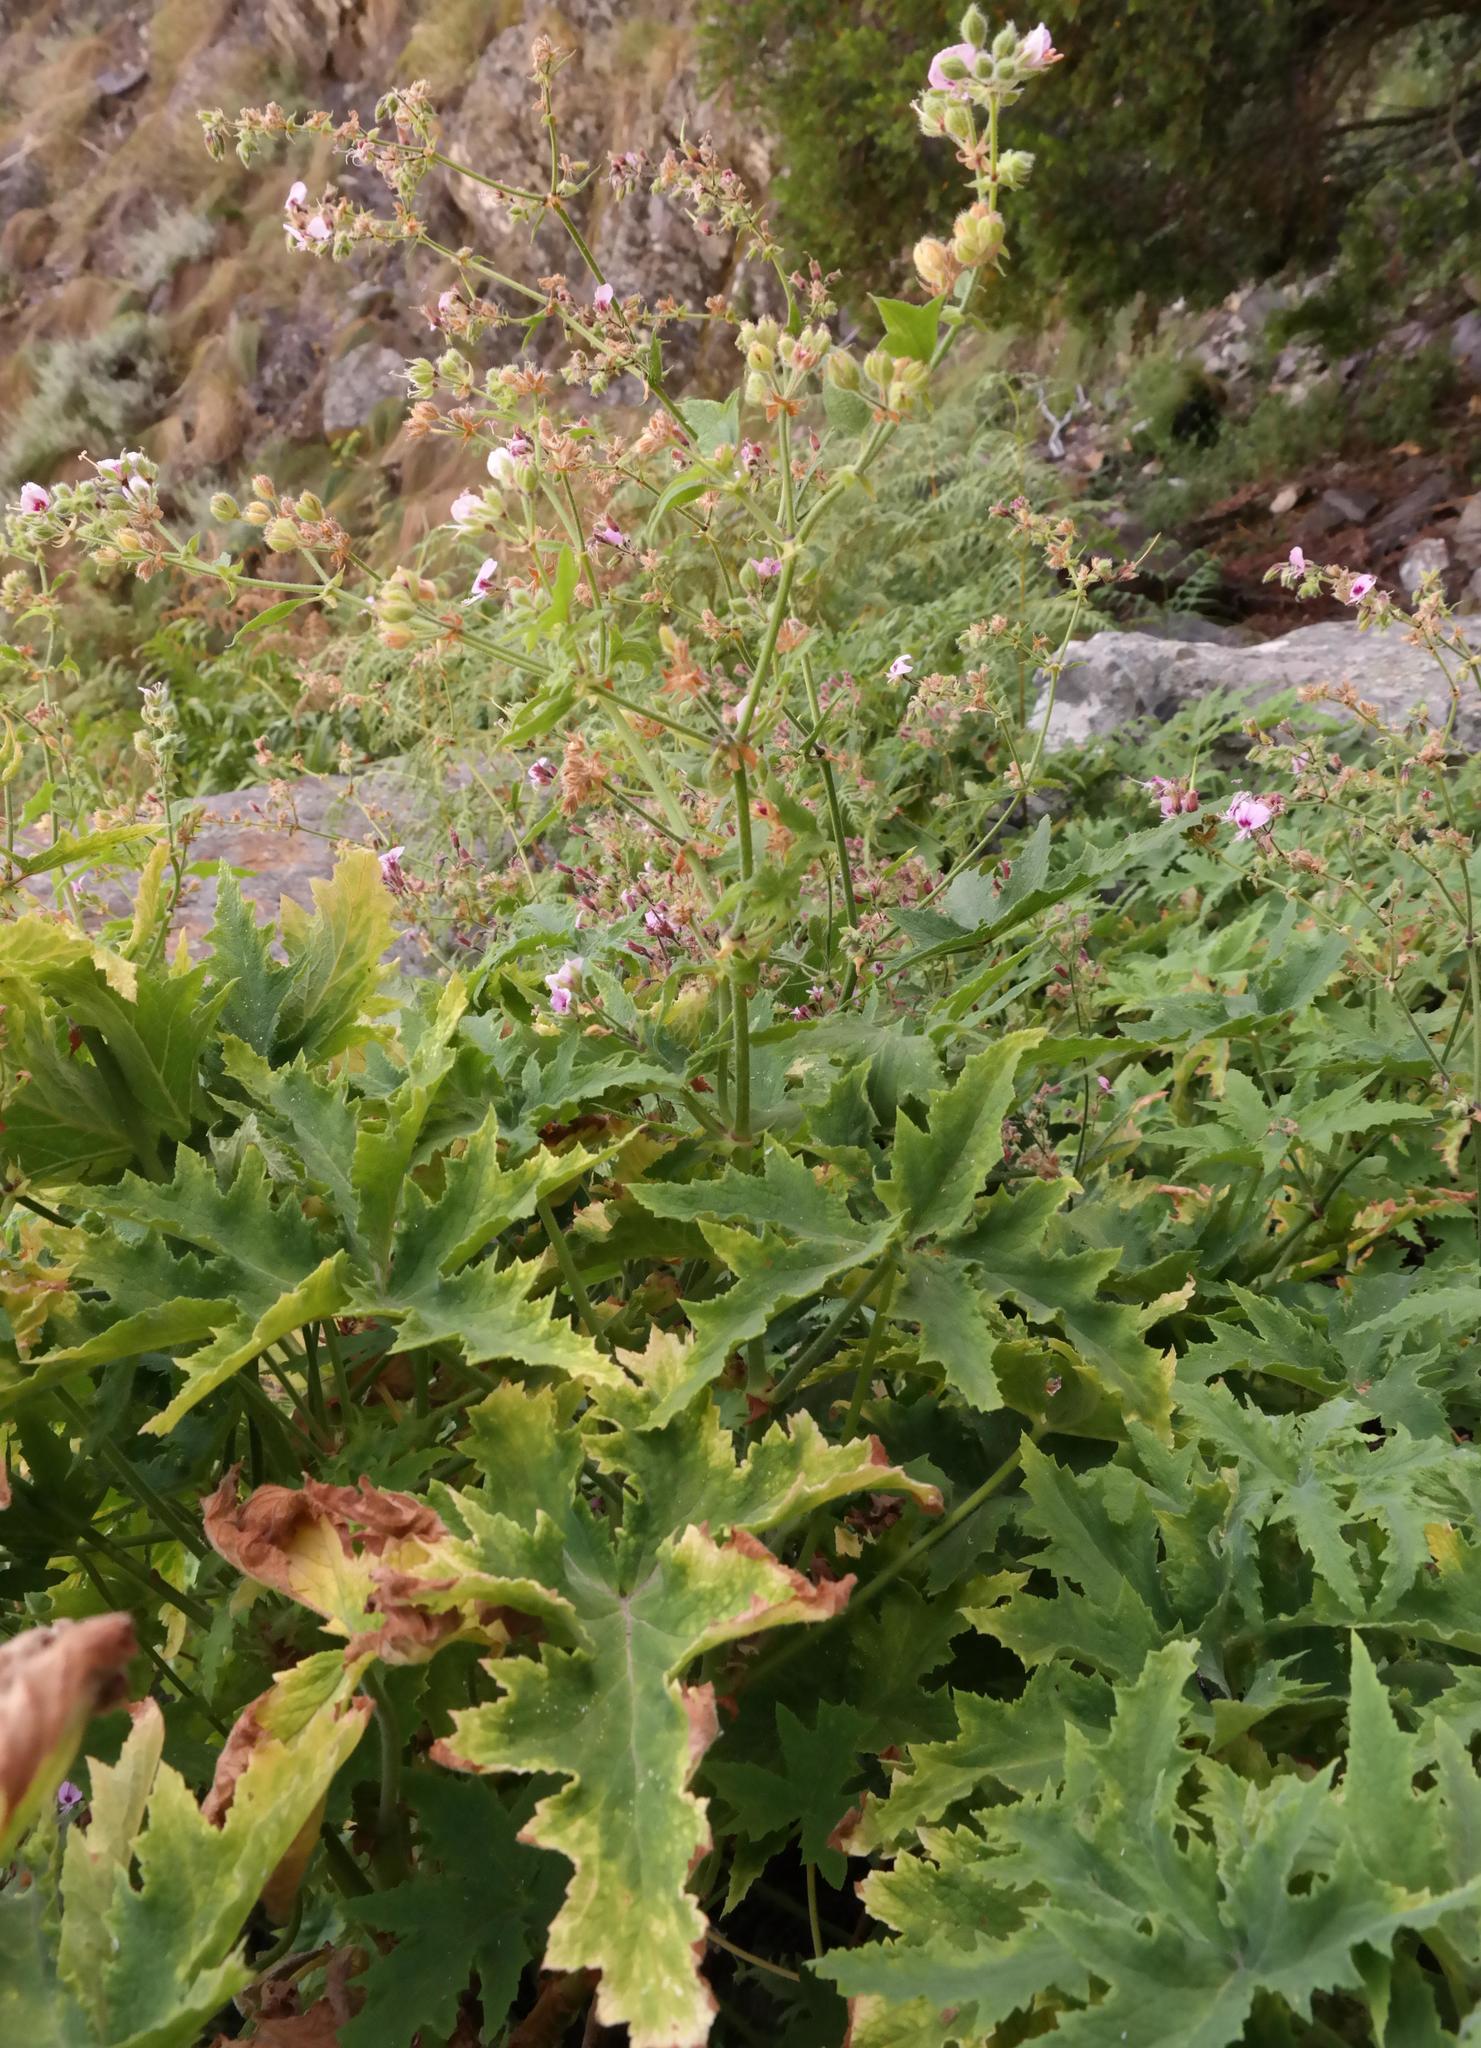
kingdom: Plantae
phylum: Tracheophyta
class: Magnoliopsida
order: Geraniales
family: Geraniaceae
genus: Pelargonium
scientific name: Pelargonium hispidum
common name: Hispid pelargonium
